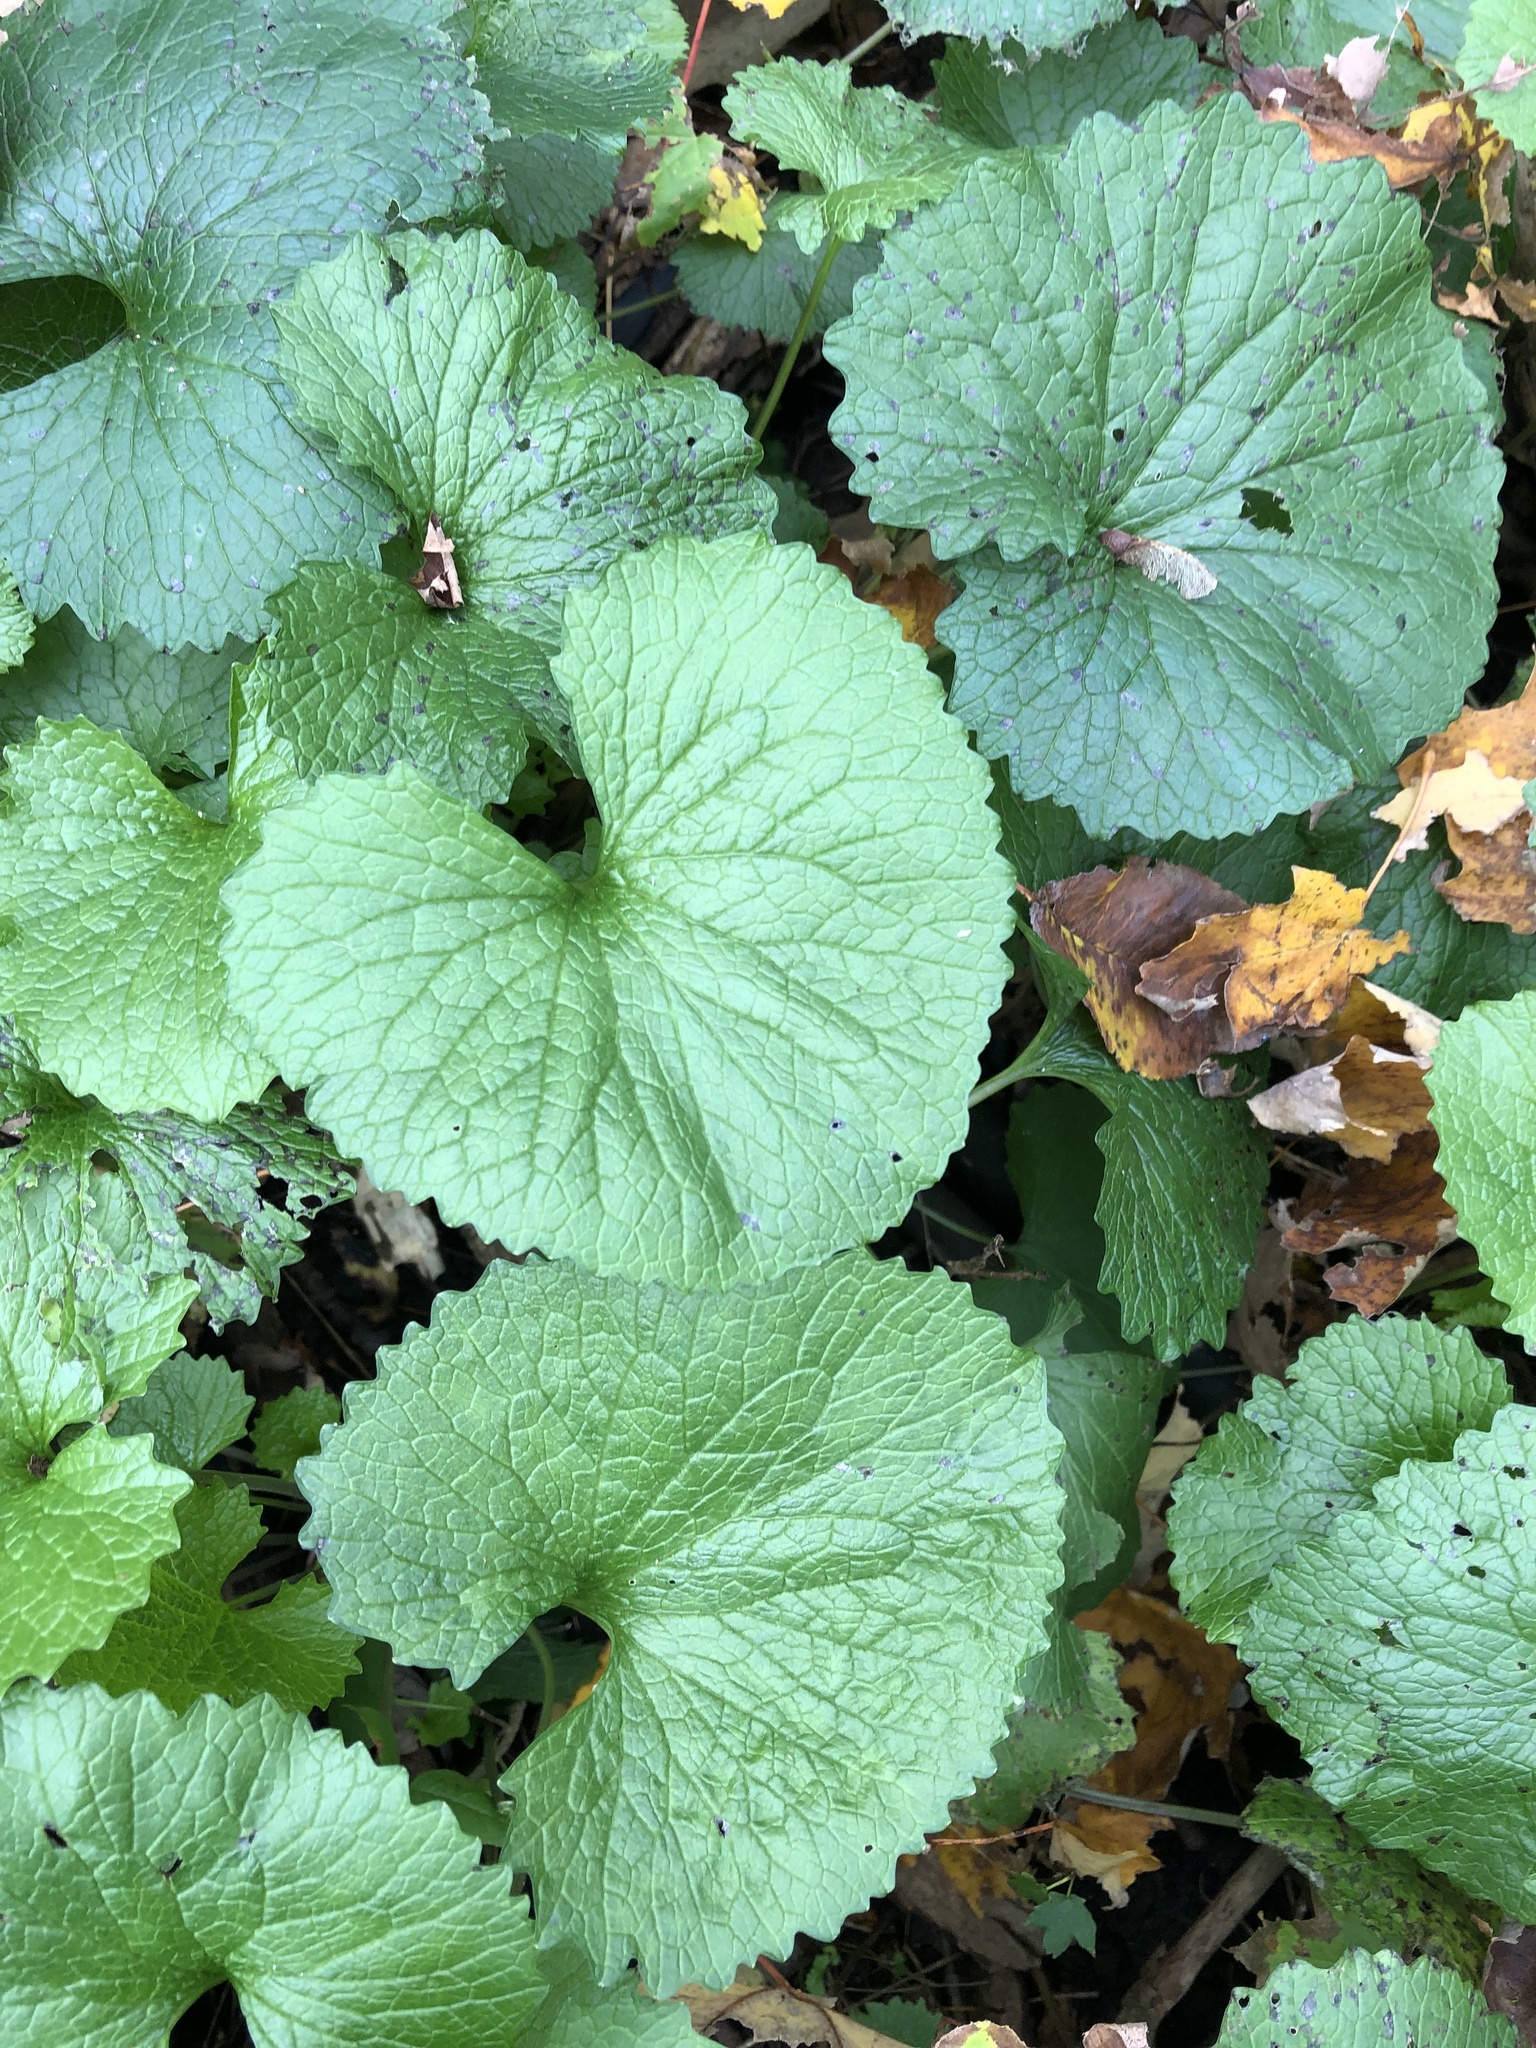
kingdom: Plantae
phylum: Tracheophyta
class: Magnoliopsida
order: Brassicales
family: Brassicaceae
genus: Alliaria
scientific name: Alliaria petiolata
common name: Garlic mustard
